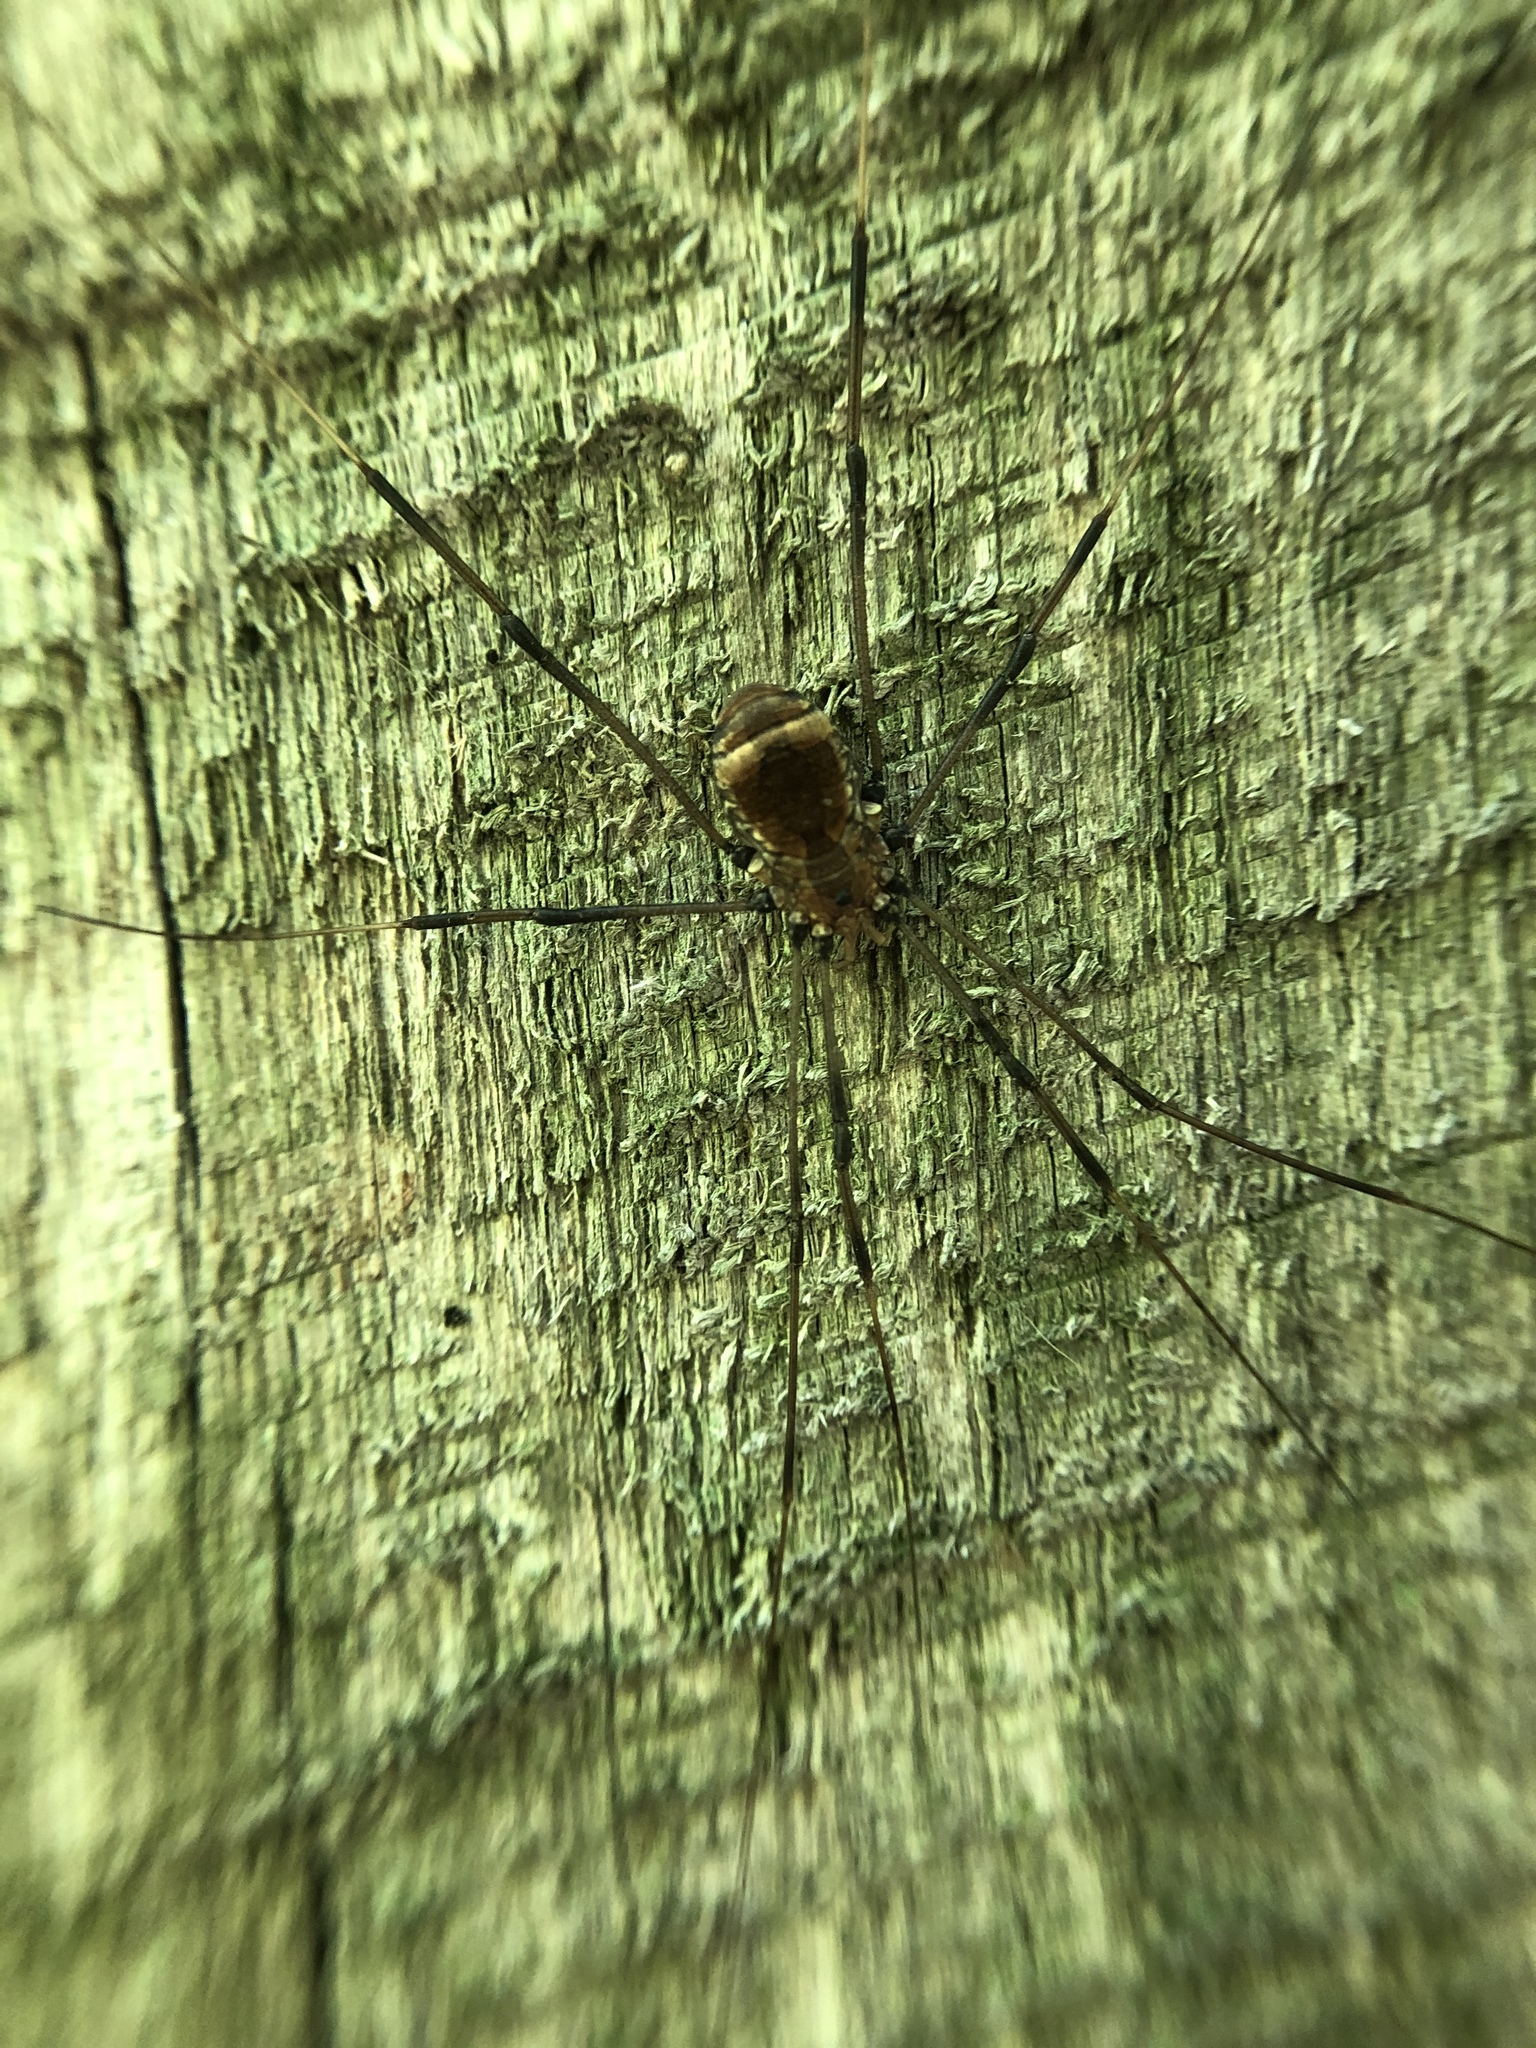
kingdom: Animalia
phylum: Arthropoda
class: Arachnida
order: Opiliones
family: Sclerosomatidae
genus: Leiobunum
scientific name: Leiobunum verrucosum
